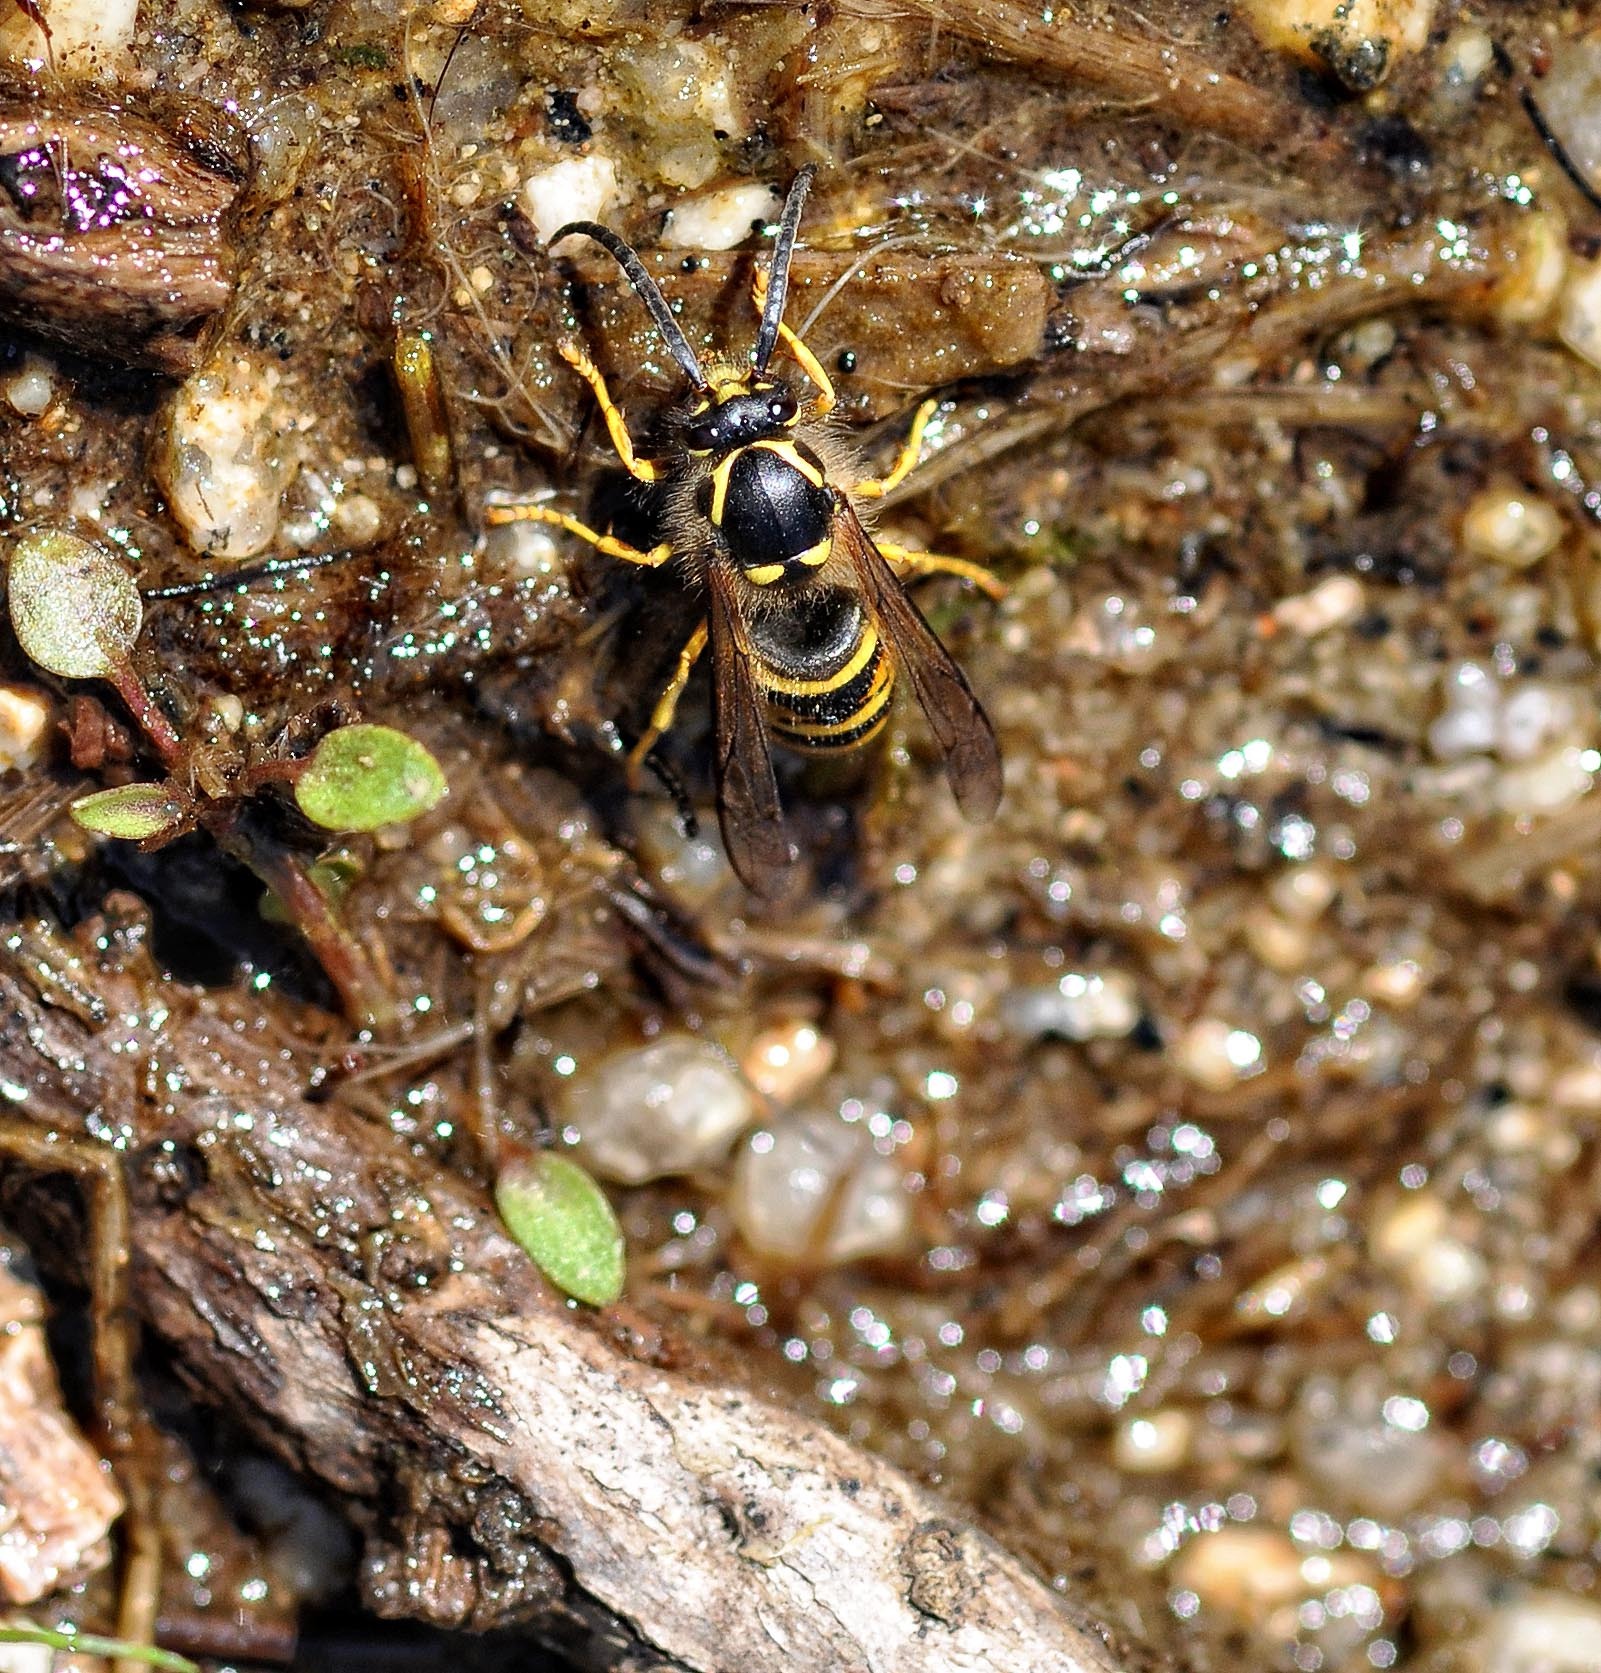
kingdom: Animalia
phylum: Arthropoda
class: Insecta
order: Hymenoptera
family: Vespidae
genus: Dolichovespula
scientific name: Dolichovespula norwegica
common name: Norwegian wasp
